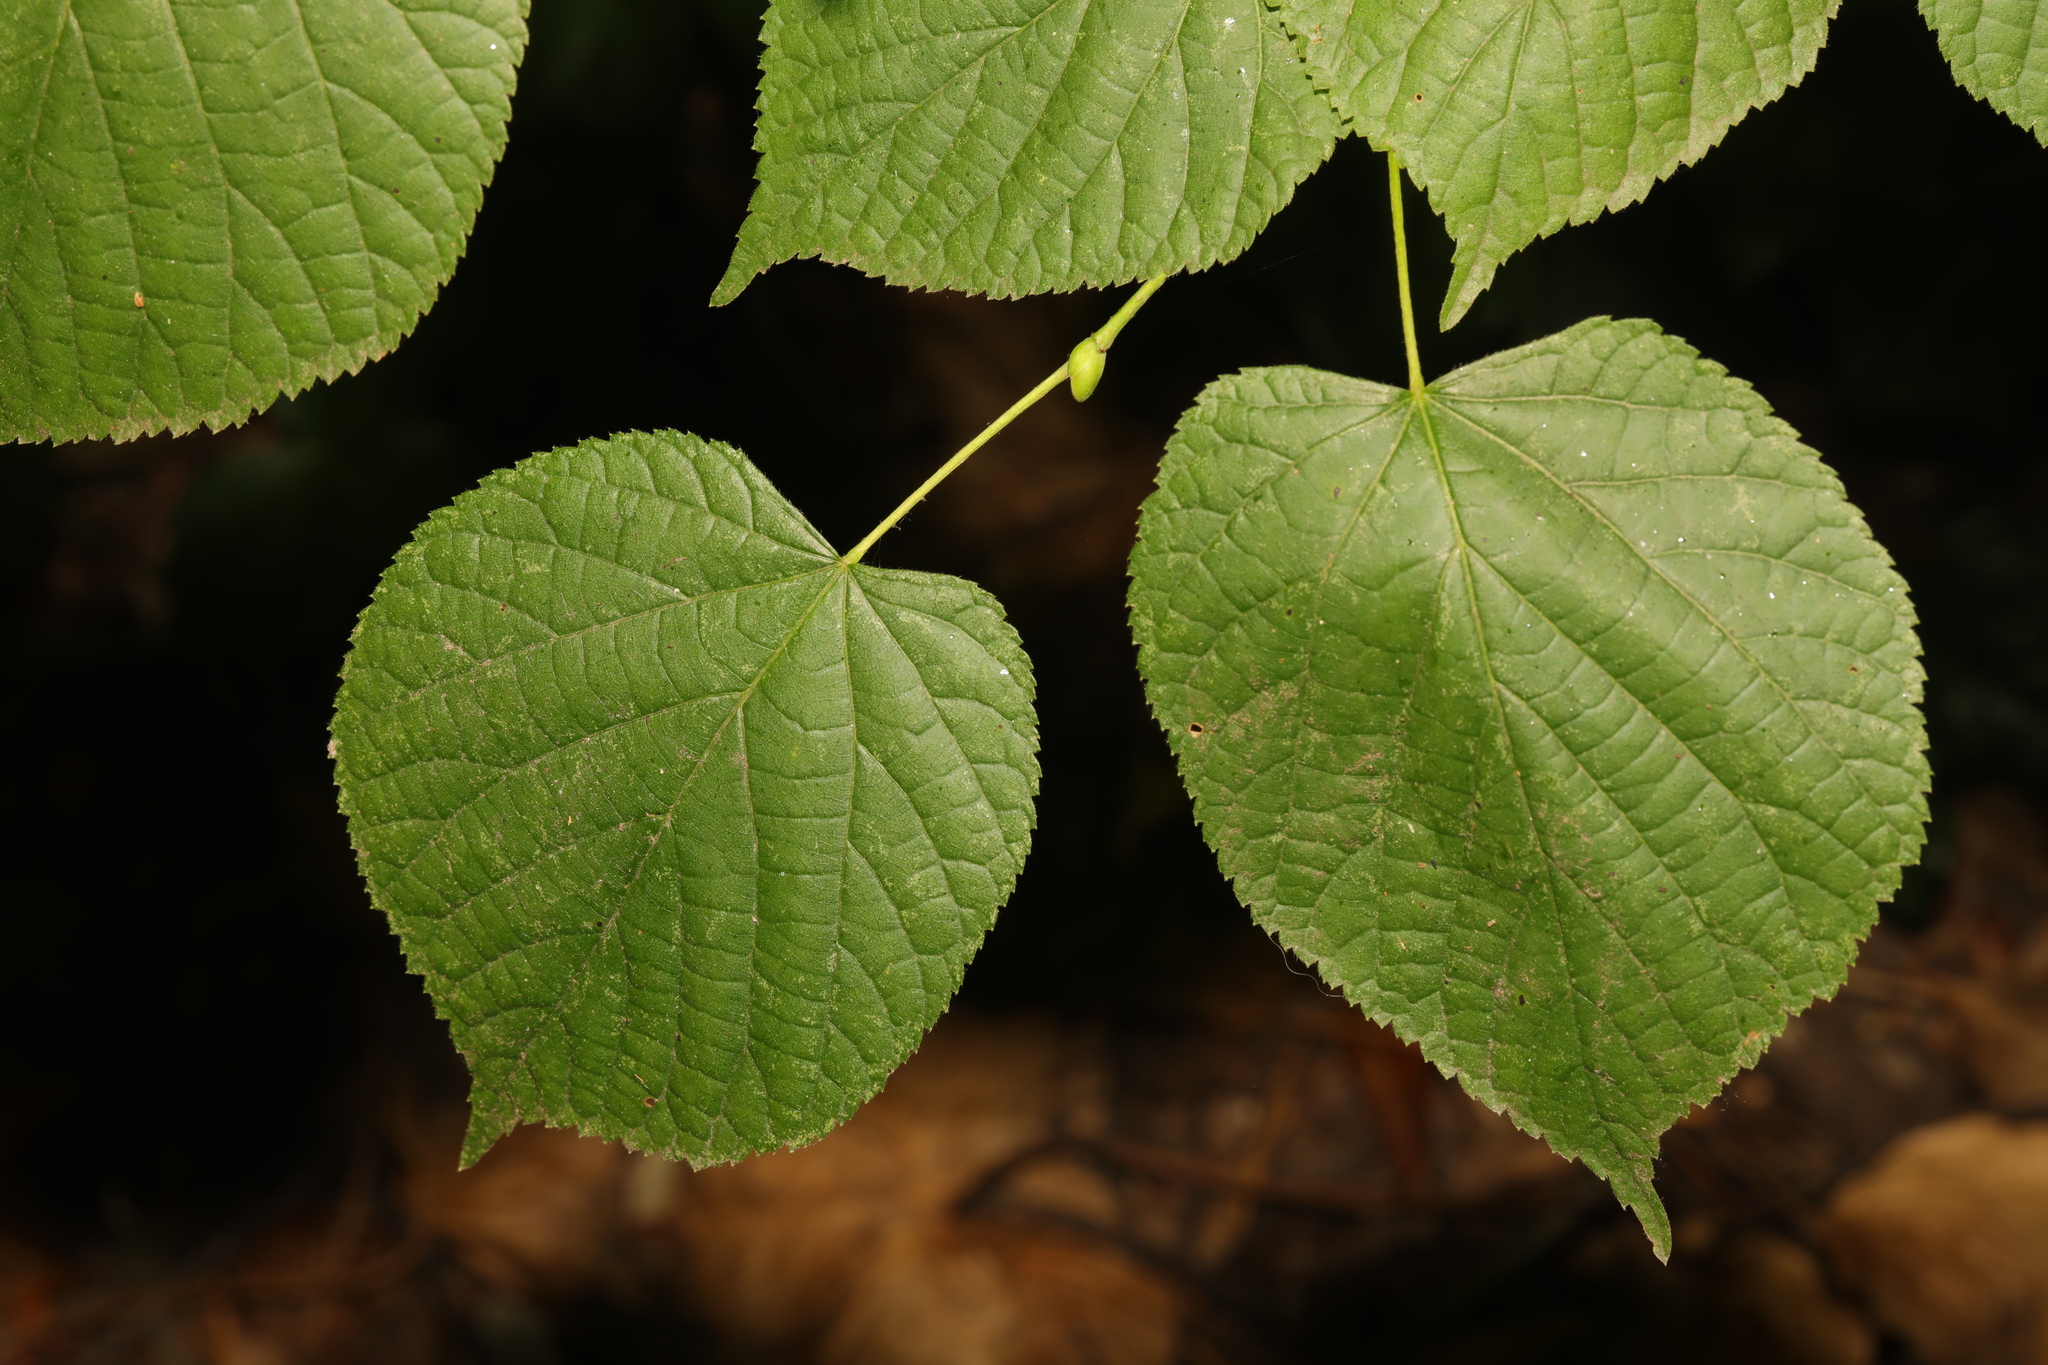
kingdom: Plantae
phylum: Tracheophyta
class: Magnoliopsida
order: Malvales
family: Malvaceae
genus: Tilia
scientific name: Tilia europaea
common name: European linden
